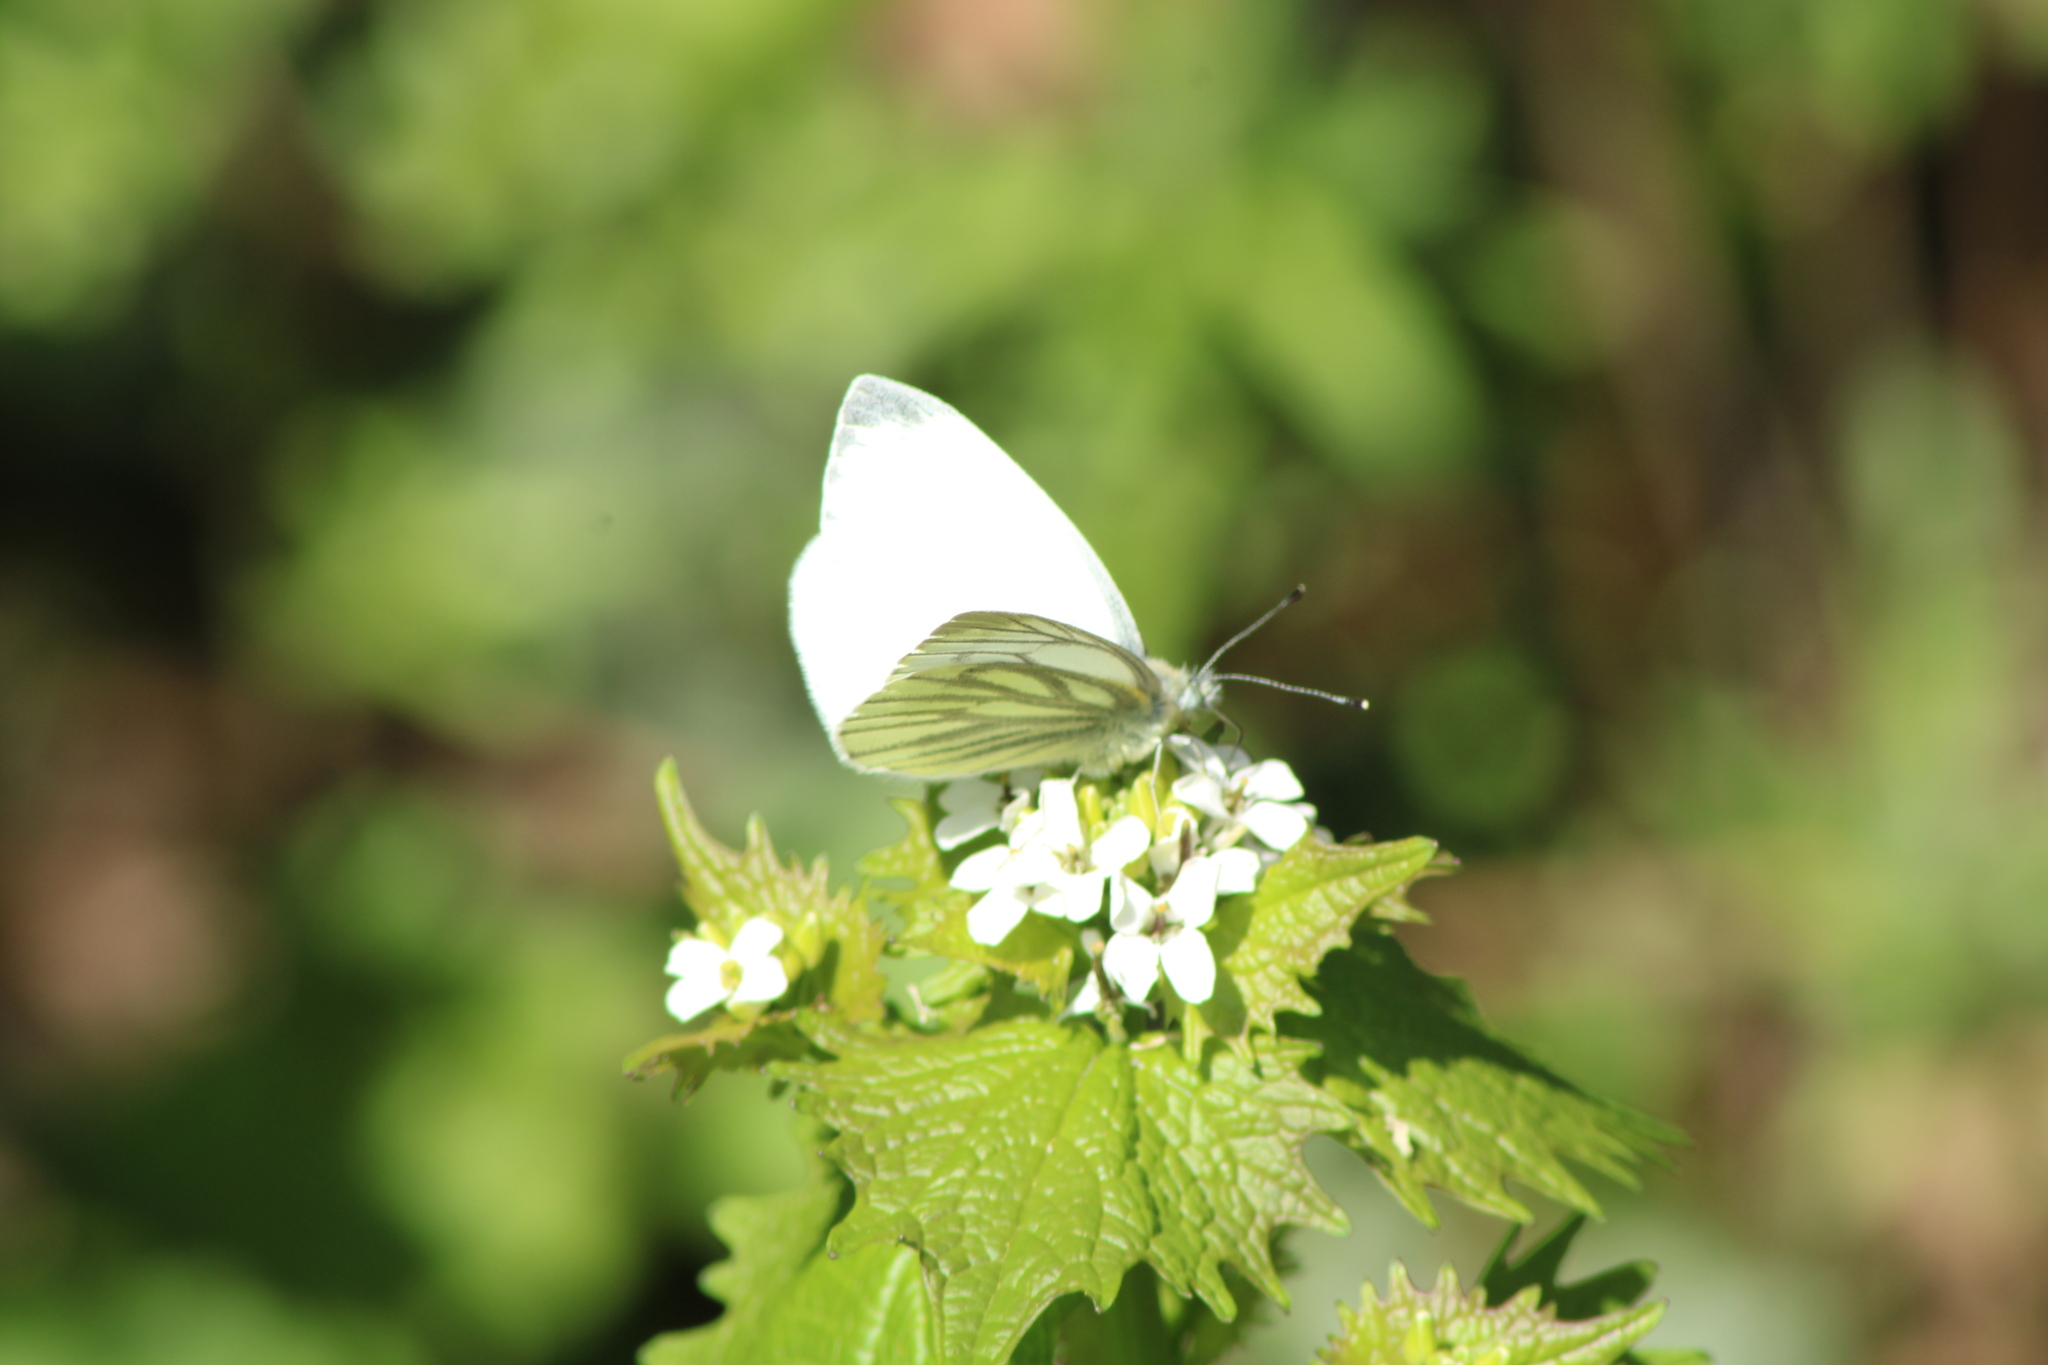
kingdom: Animalia
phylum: Arthropoda
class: Insecta
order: Lepidoptera
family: Pieridae
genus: Pieris
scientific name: Pieris napi
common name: Green-veined white
